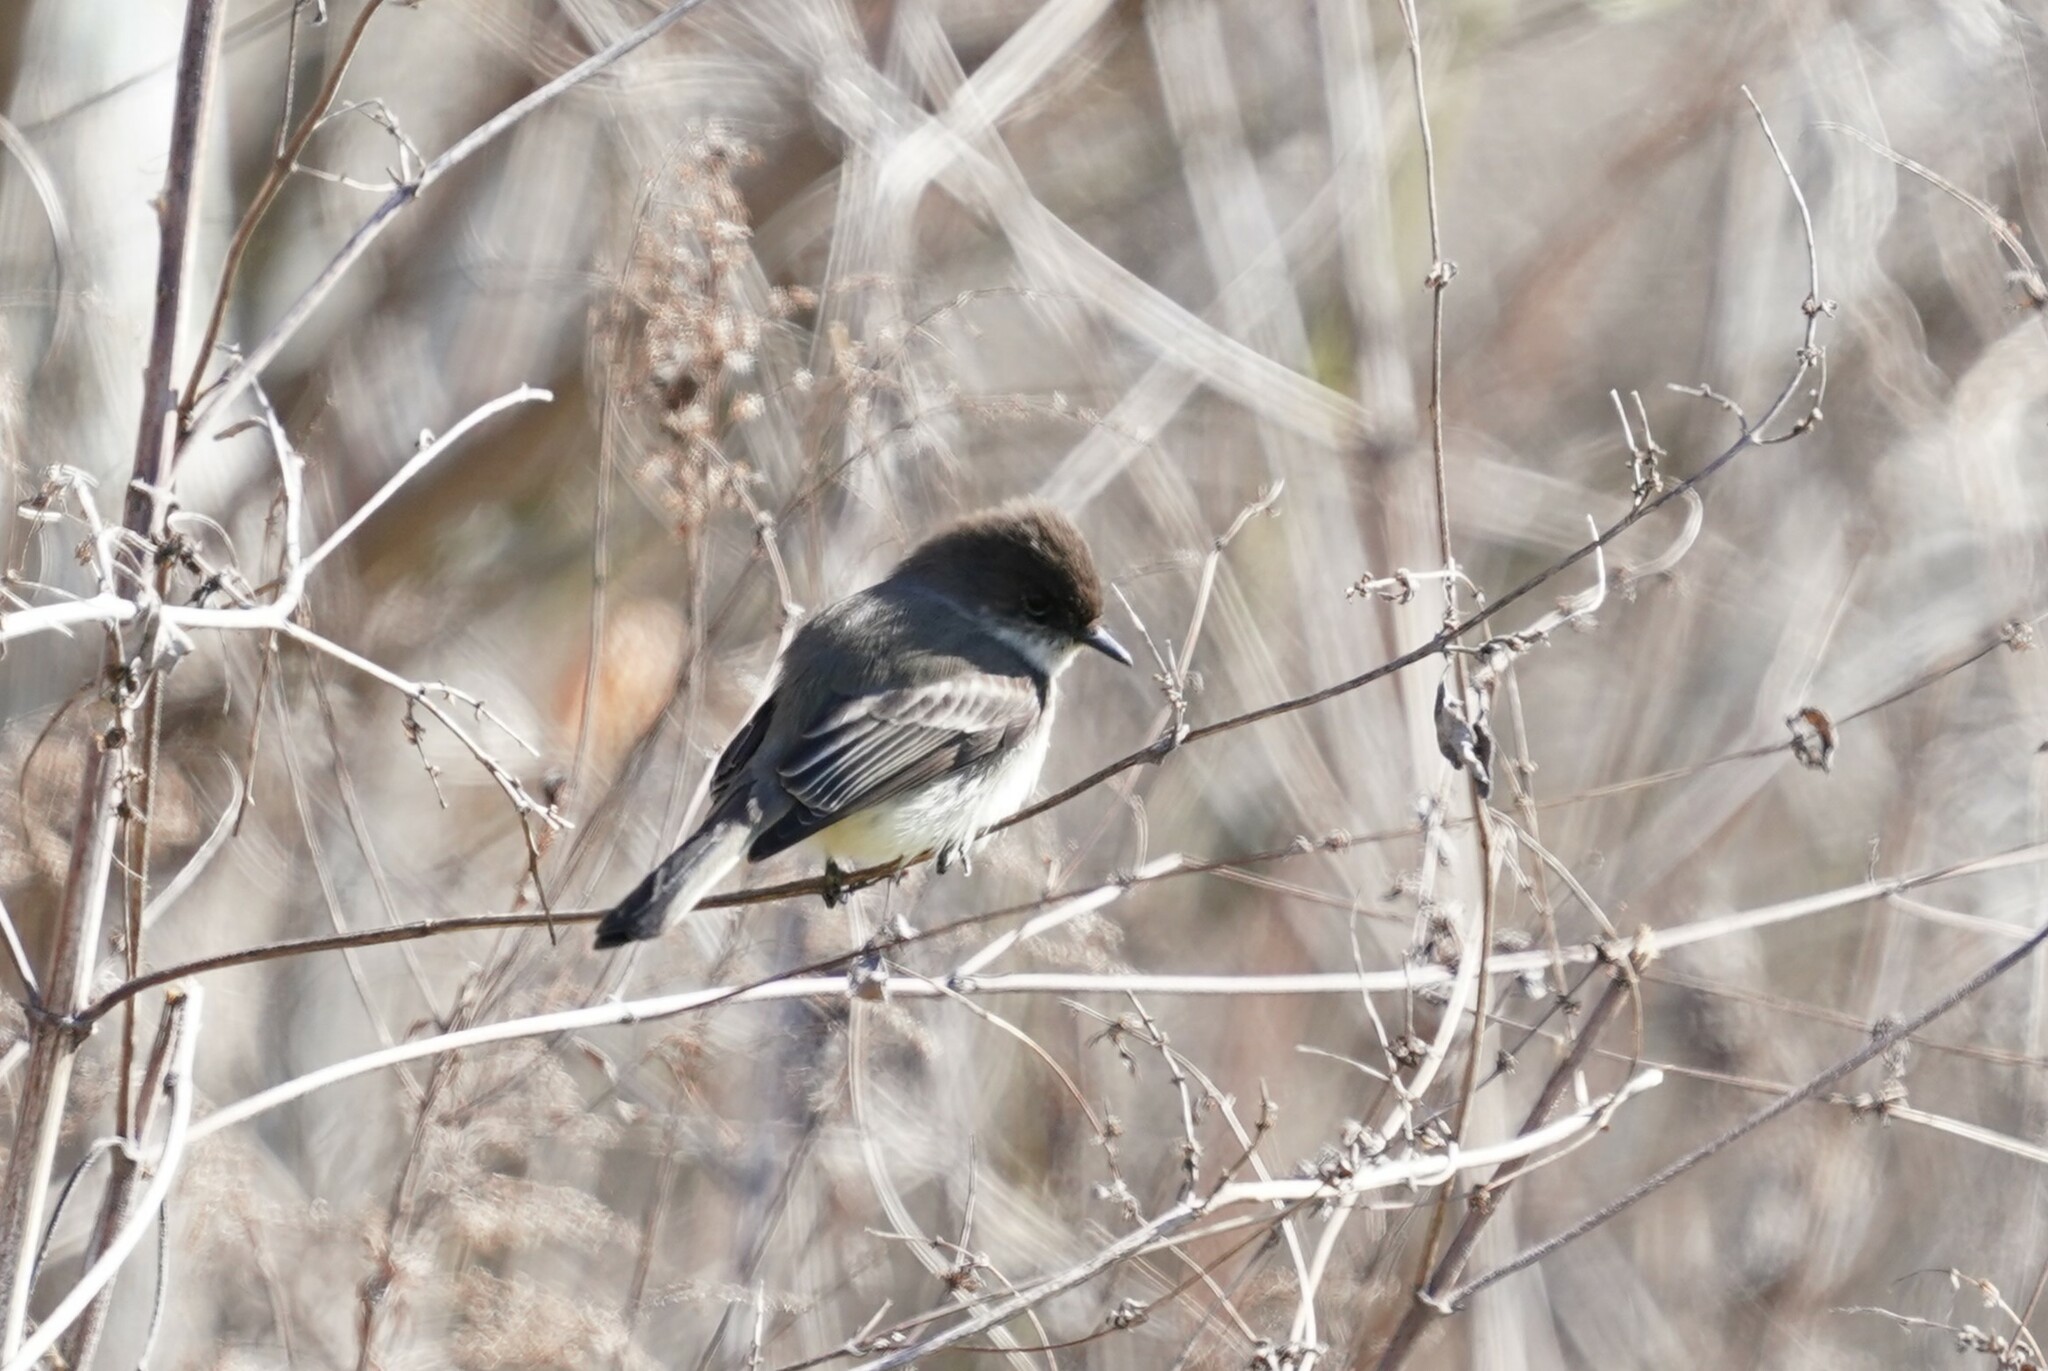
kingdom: Animalia
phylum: Chordata
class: Aves
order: Passeriformes
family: Tyrannidae
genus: Sayornis
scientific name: Sayornis phoebe
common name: Eastern phoebe
